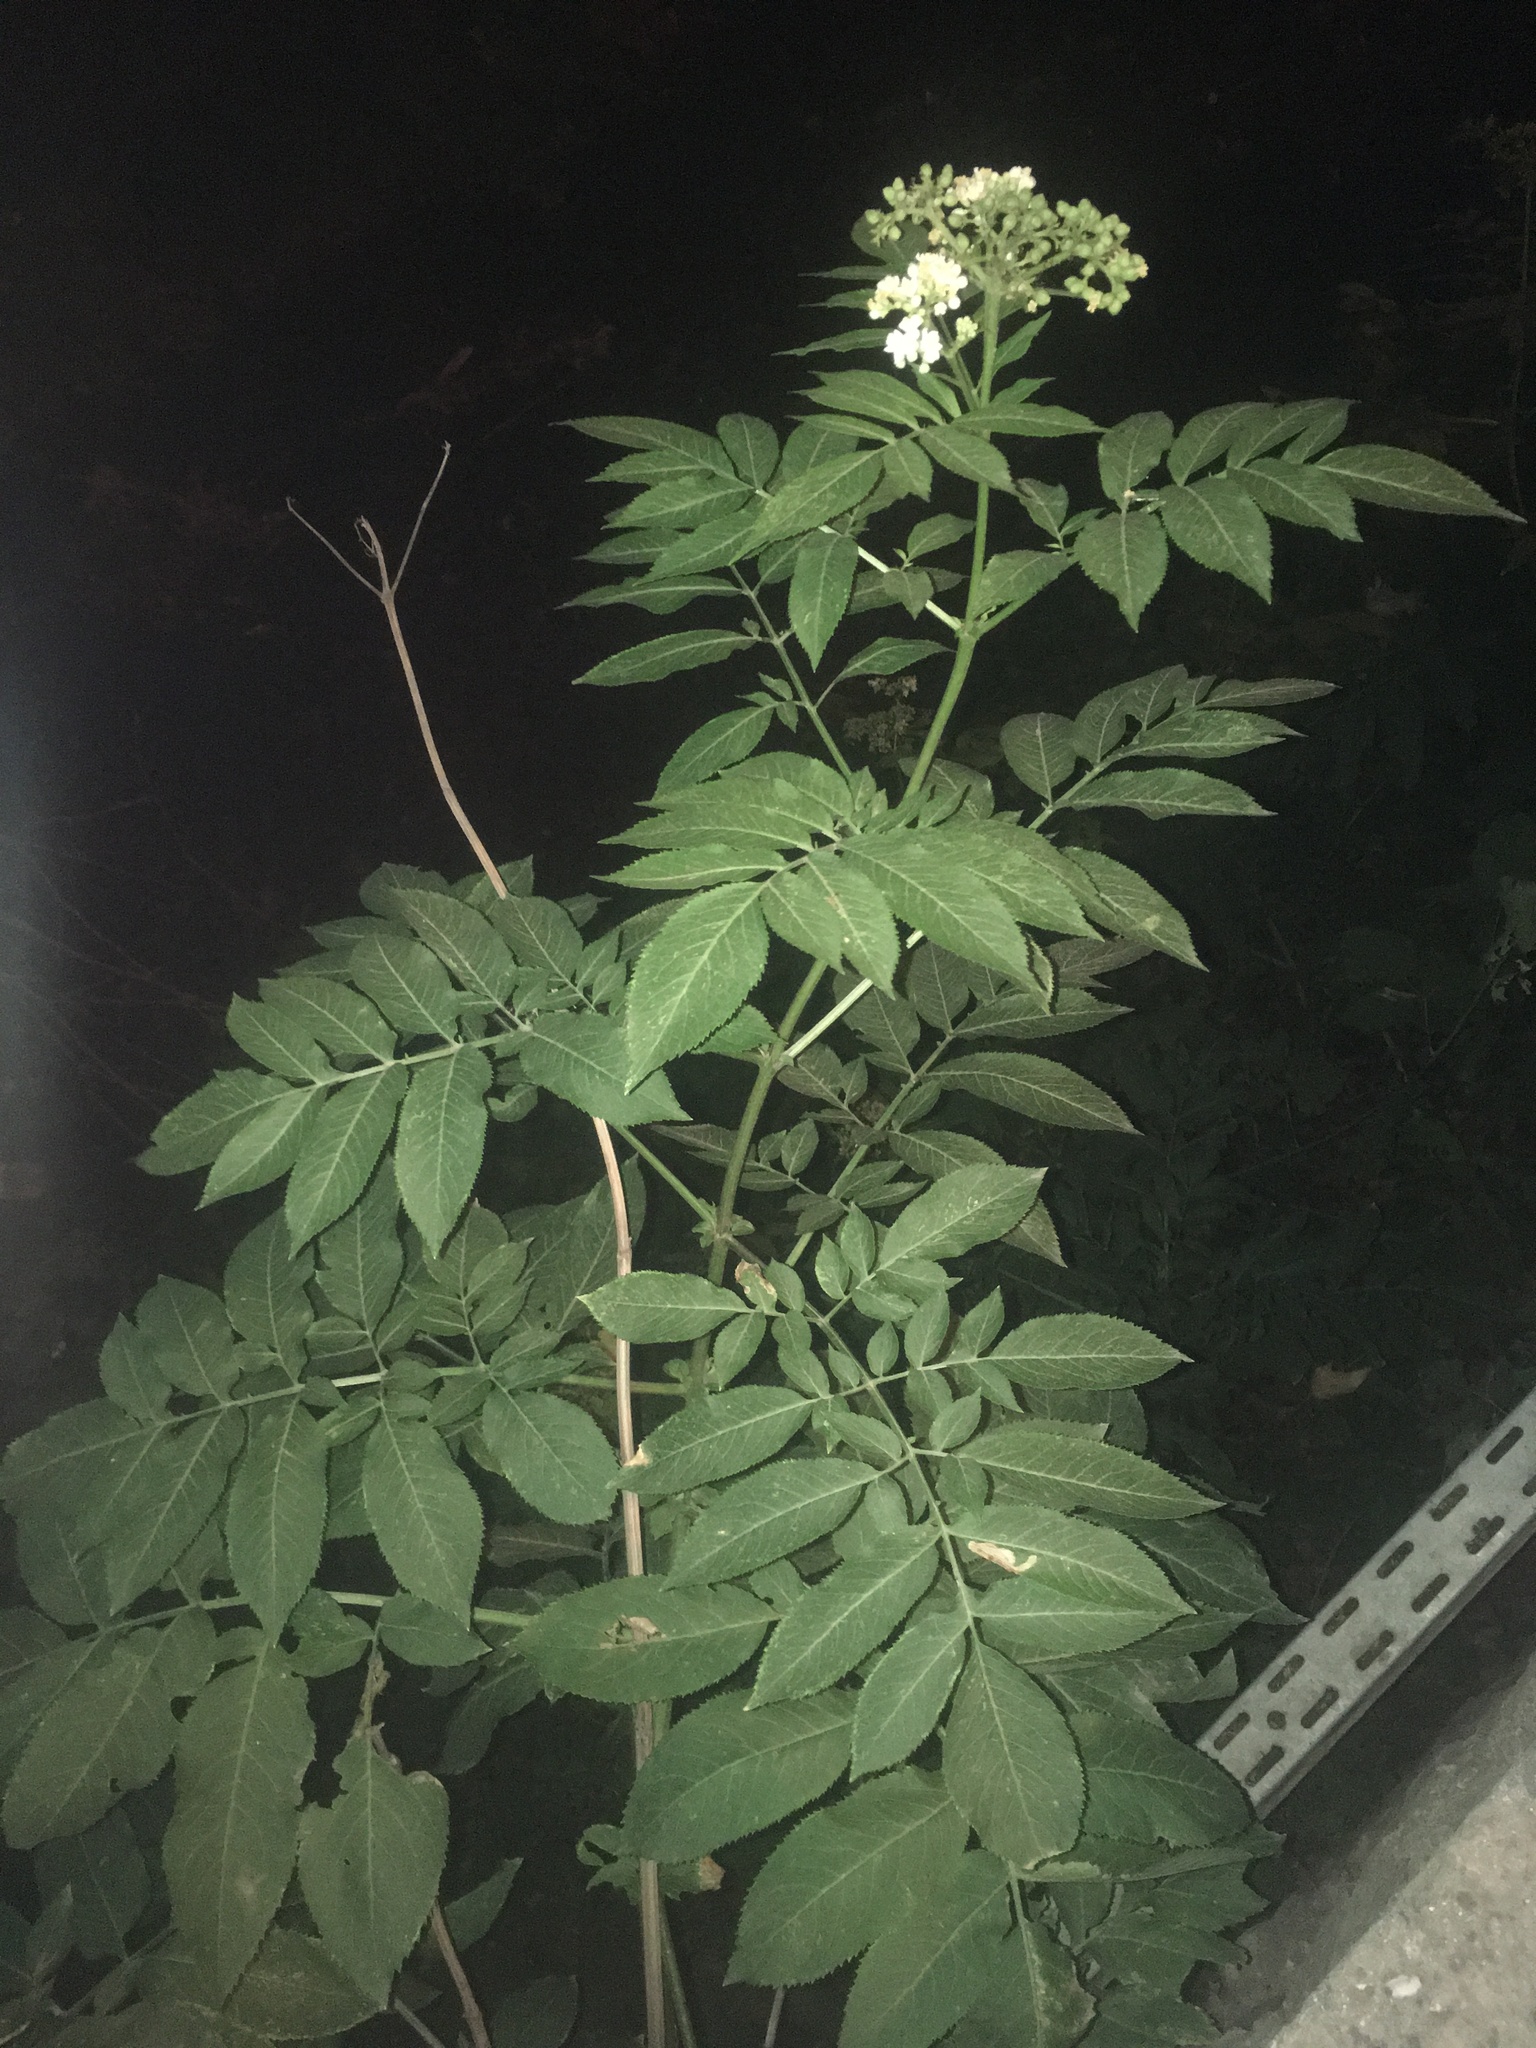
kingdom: Plantae
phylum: Tracheophyta
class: Magnoliopsida
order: Dipsacales
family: Viburnaceae
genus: Sambucus
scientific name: Sambucus ebulus
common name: Dwarf elder
